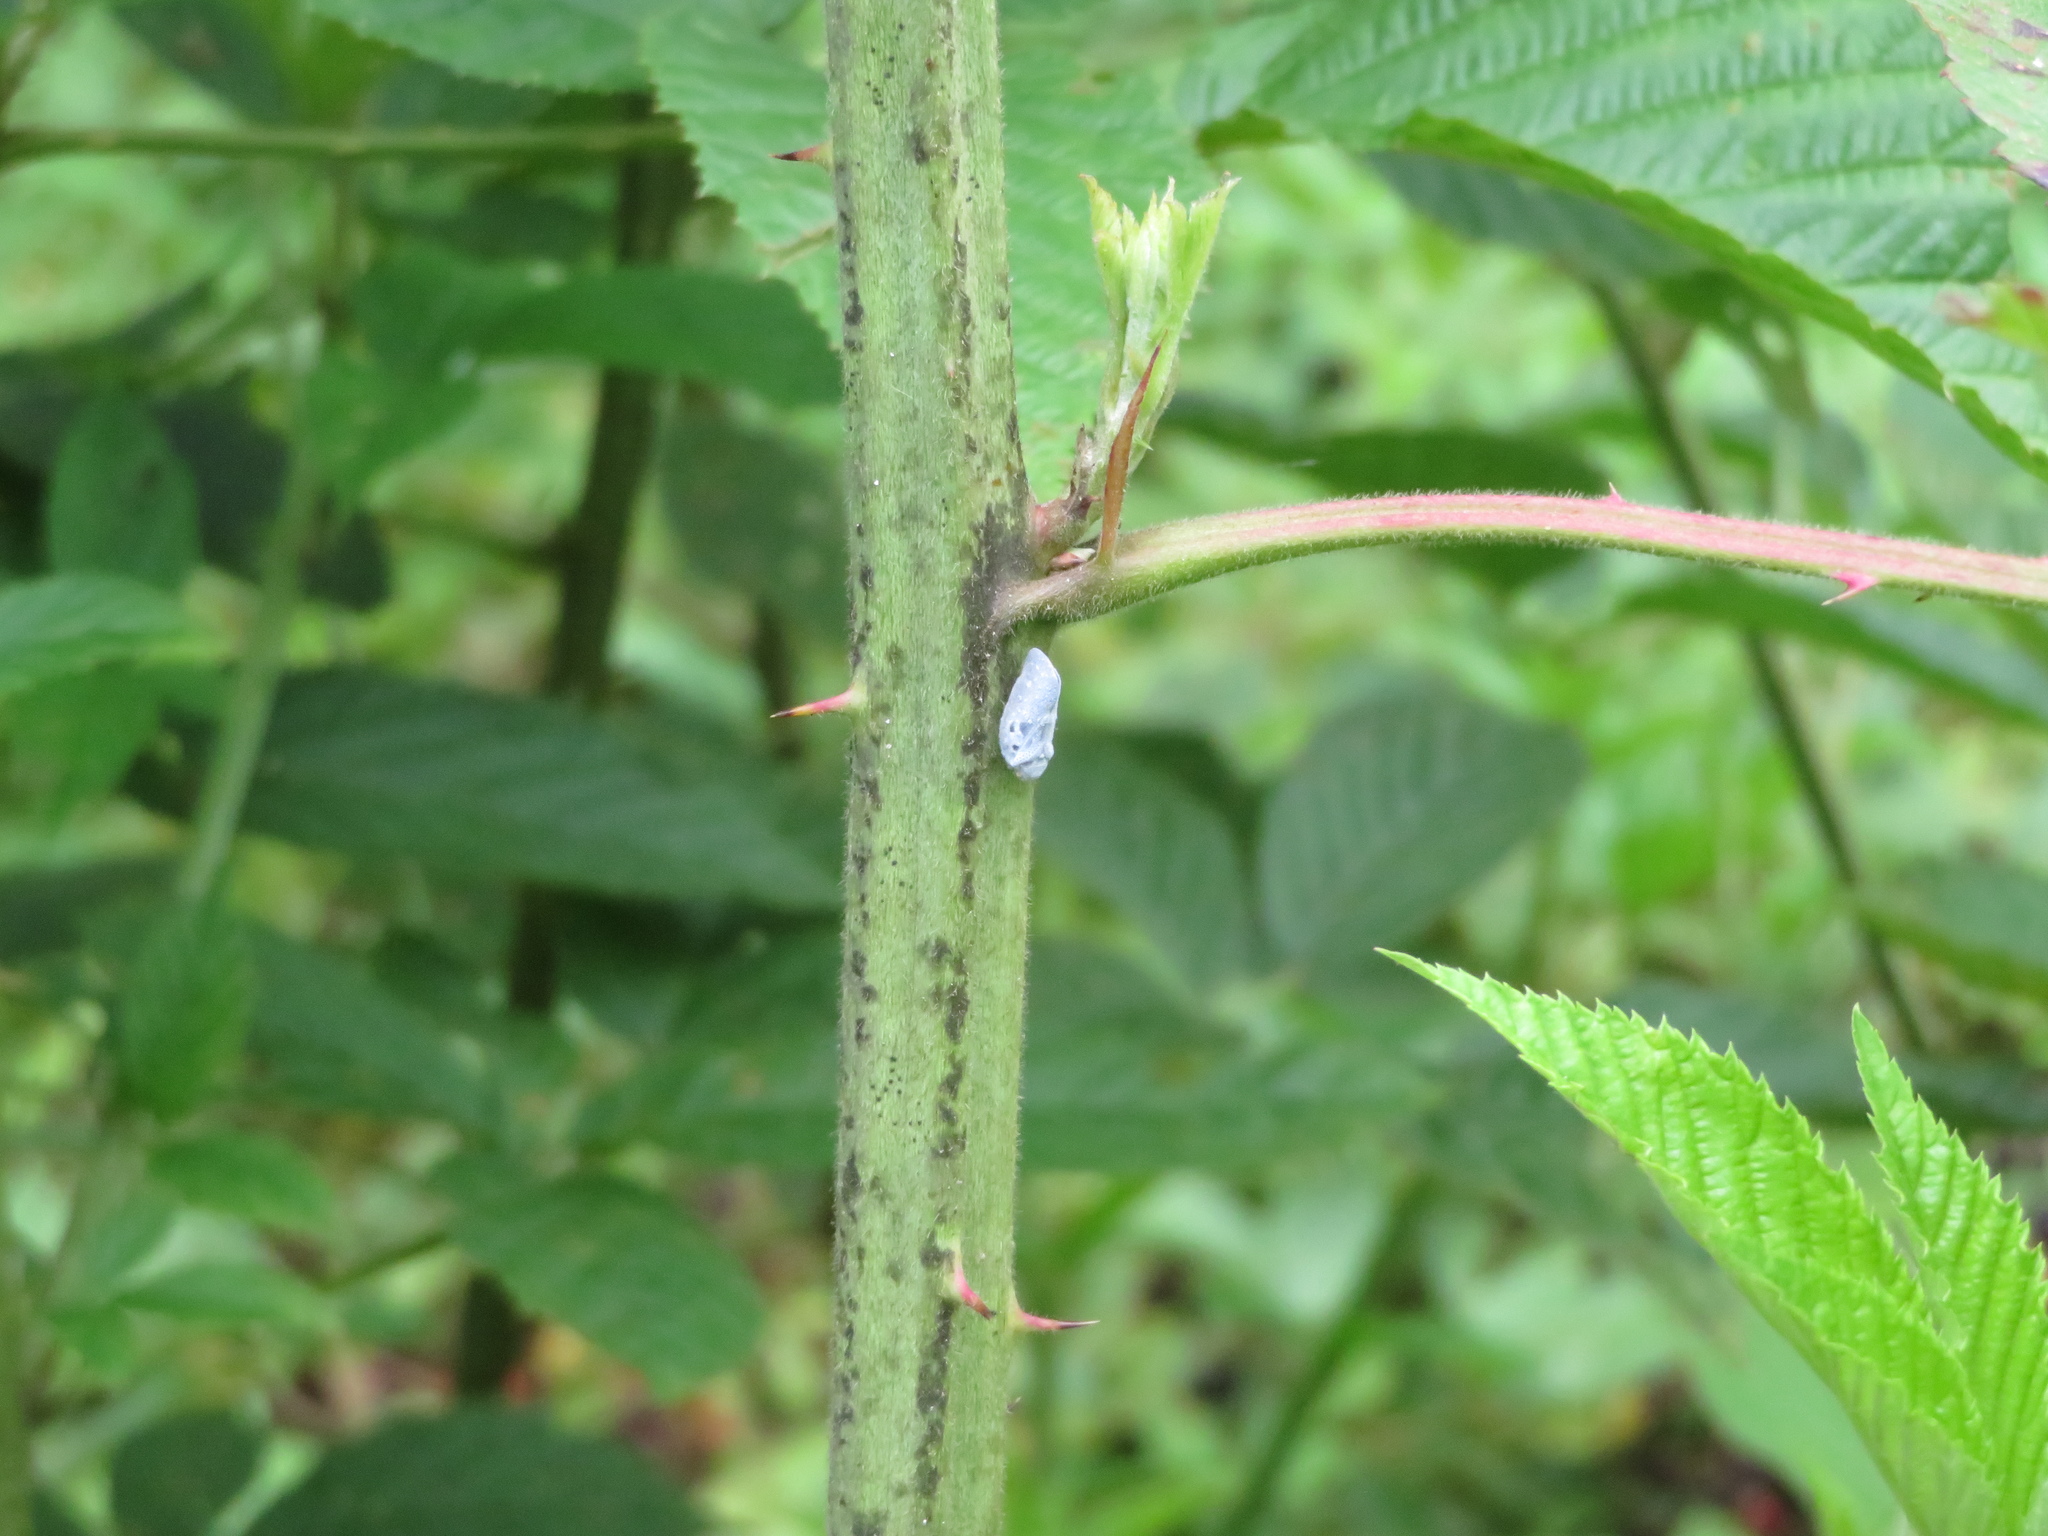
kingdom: Animalia
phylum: Arthropoda
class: Insecta
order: Hemiptera
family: Flatidae
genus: Metcalfa
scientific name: Metcalfa pruinosa
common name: Citrus flatid planthopper
